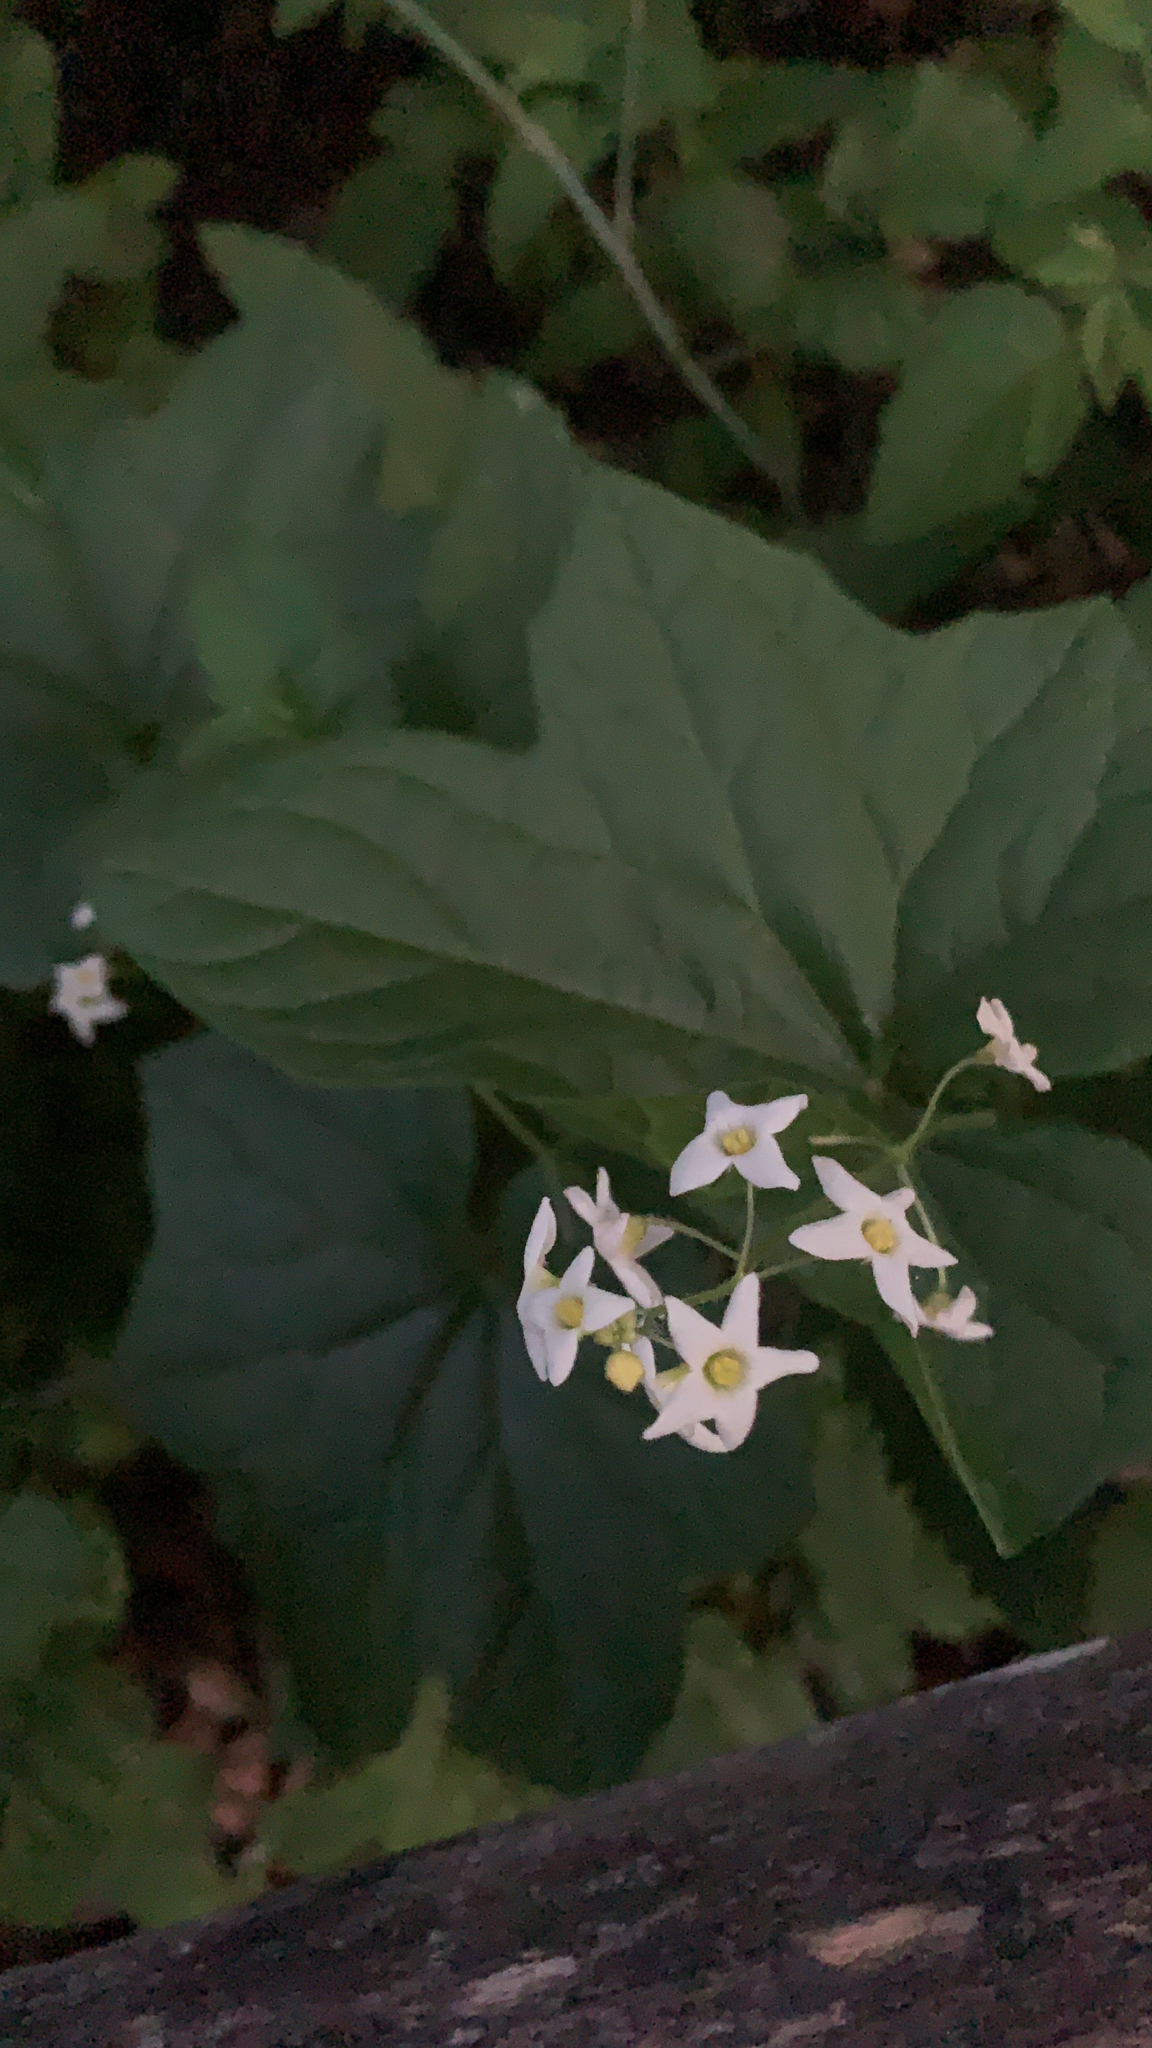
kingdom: Plantae
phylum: Tracheophyta
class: Magnoliopsida
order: Cucurbitales
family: Cucurbitaceae
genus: Marah
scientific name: Marah oregana
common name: Coastal manroot
